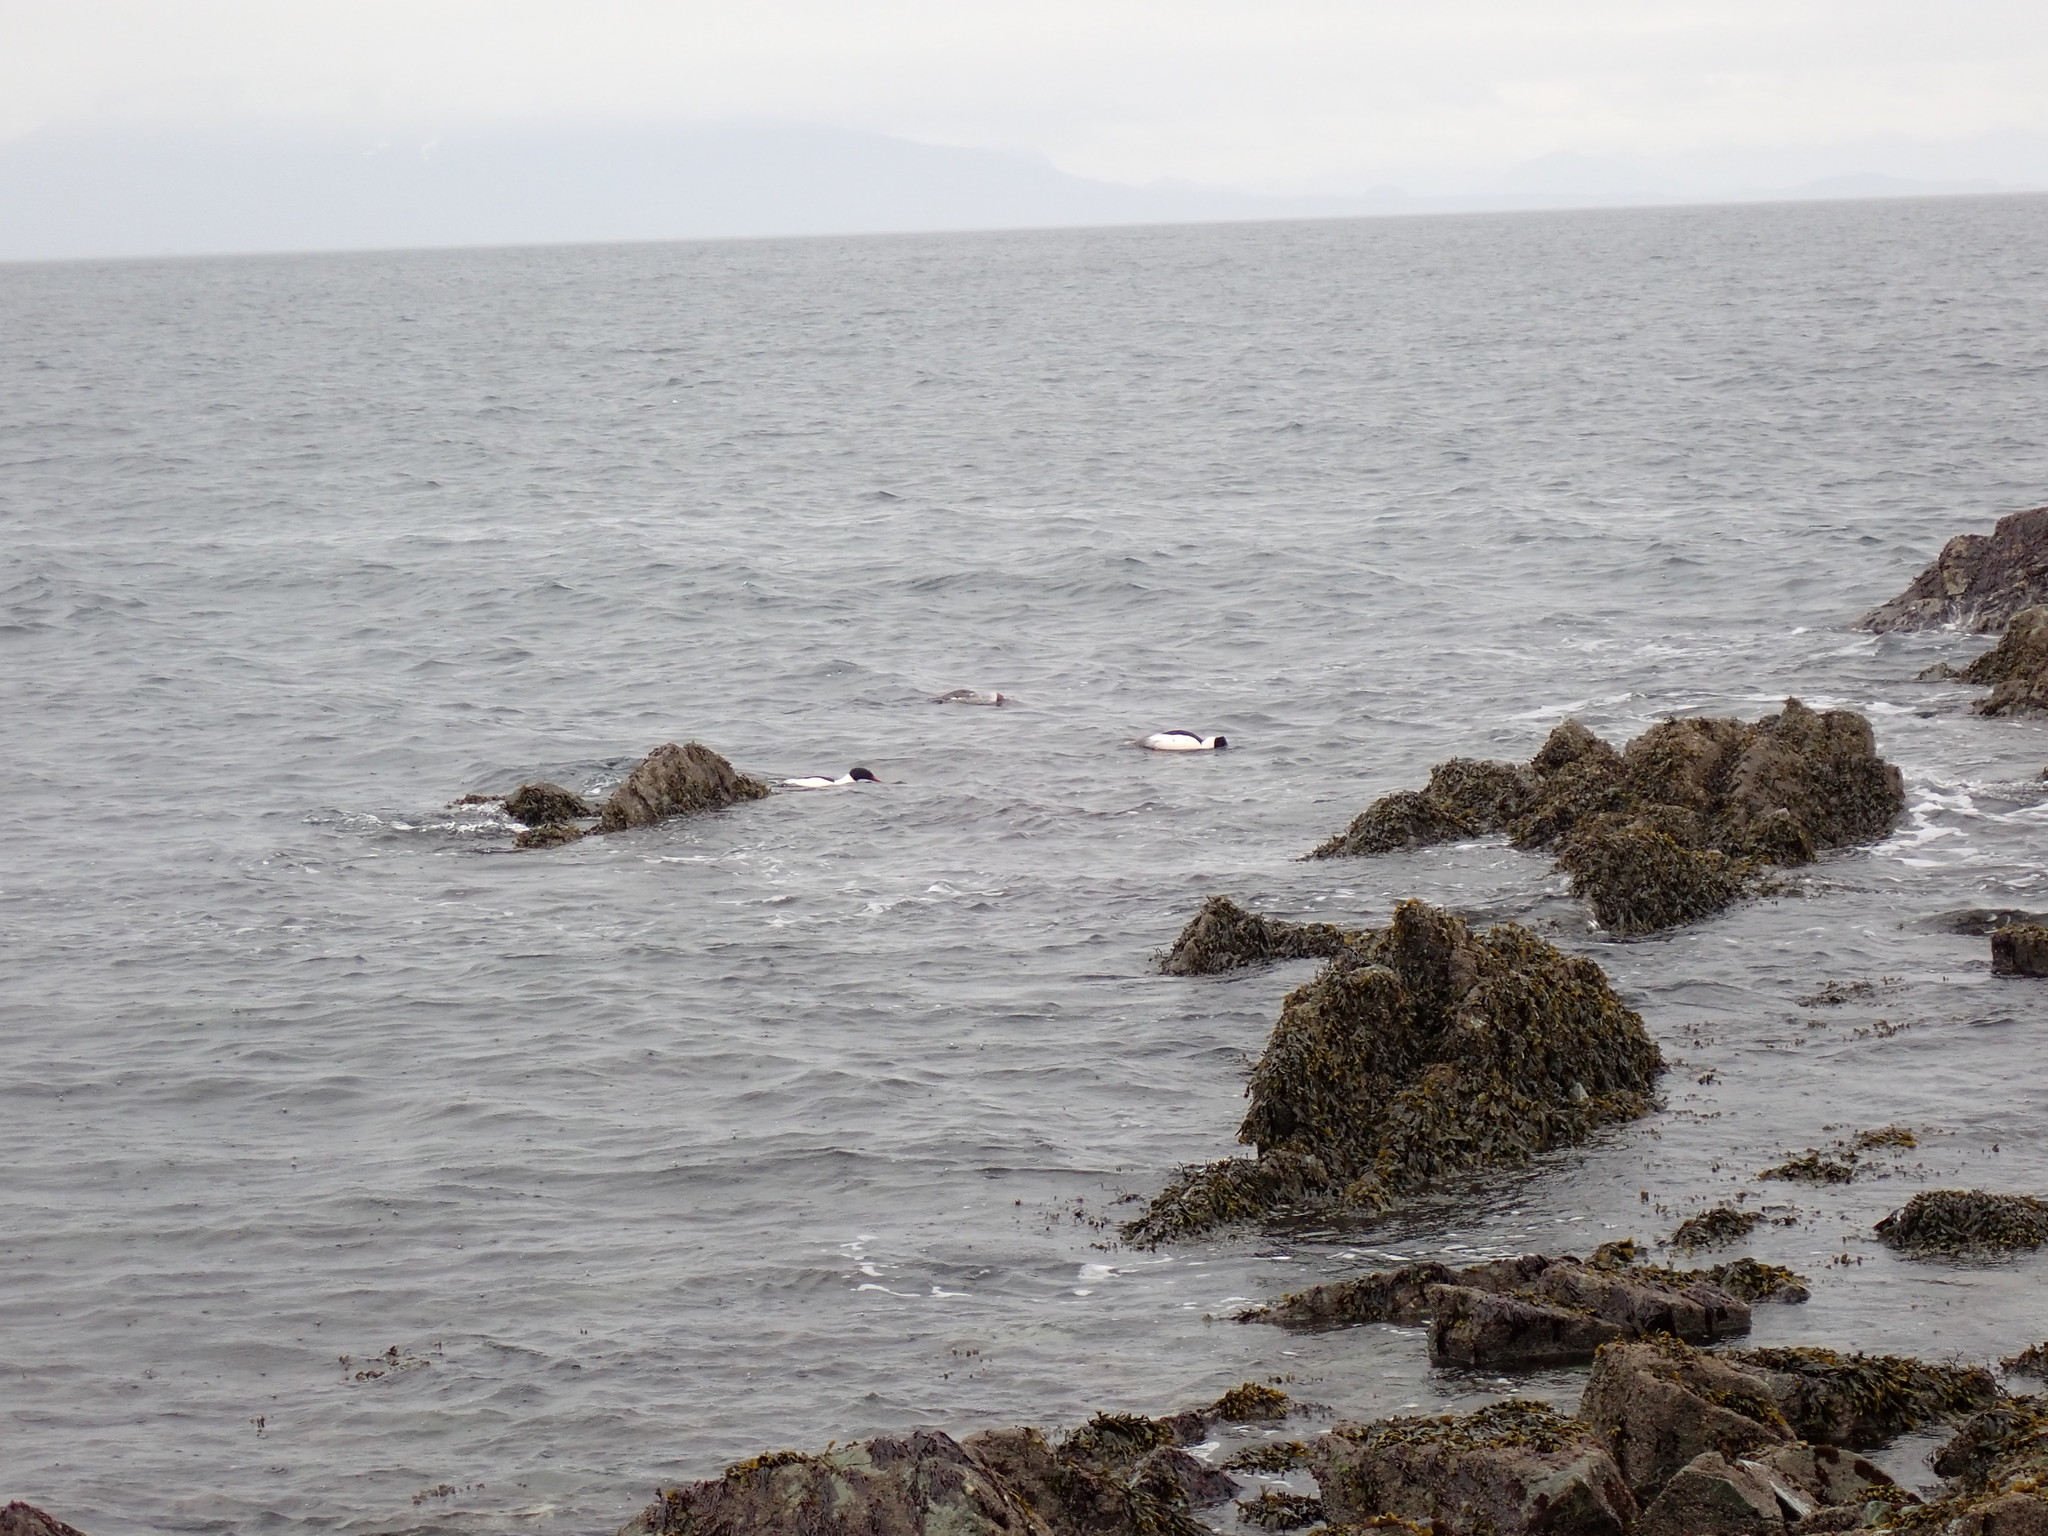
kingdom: Animalia
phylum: Chordata
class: Aves
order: Anseriformes
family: Anatidae
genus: Mergus
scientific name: Mergus merganser
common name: Common merganser
